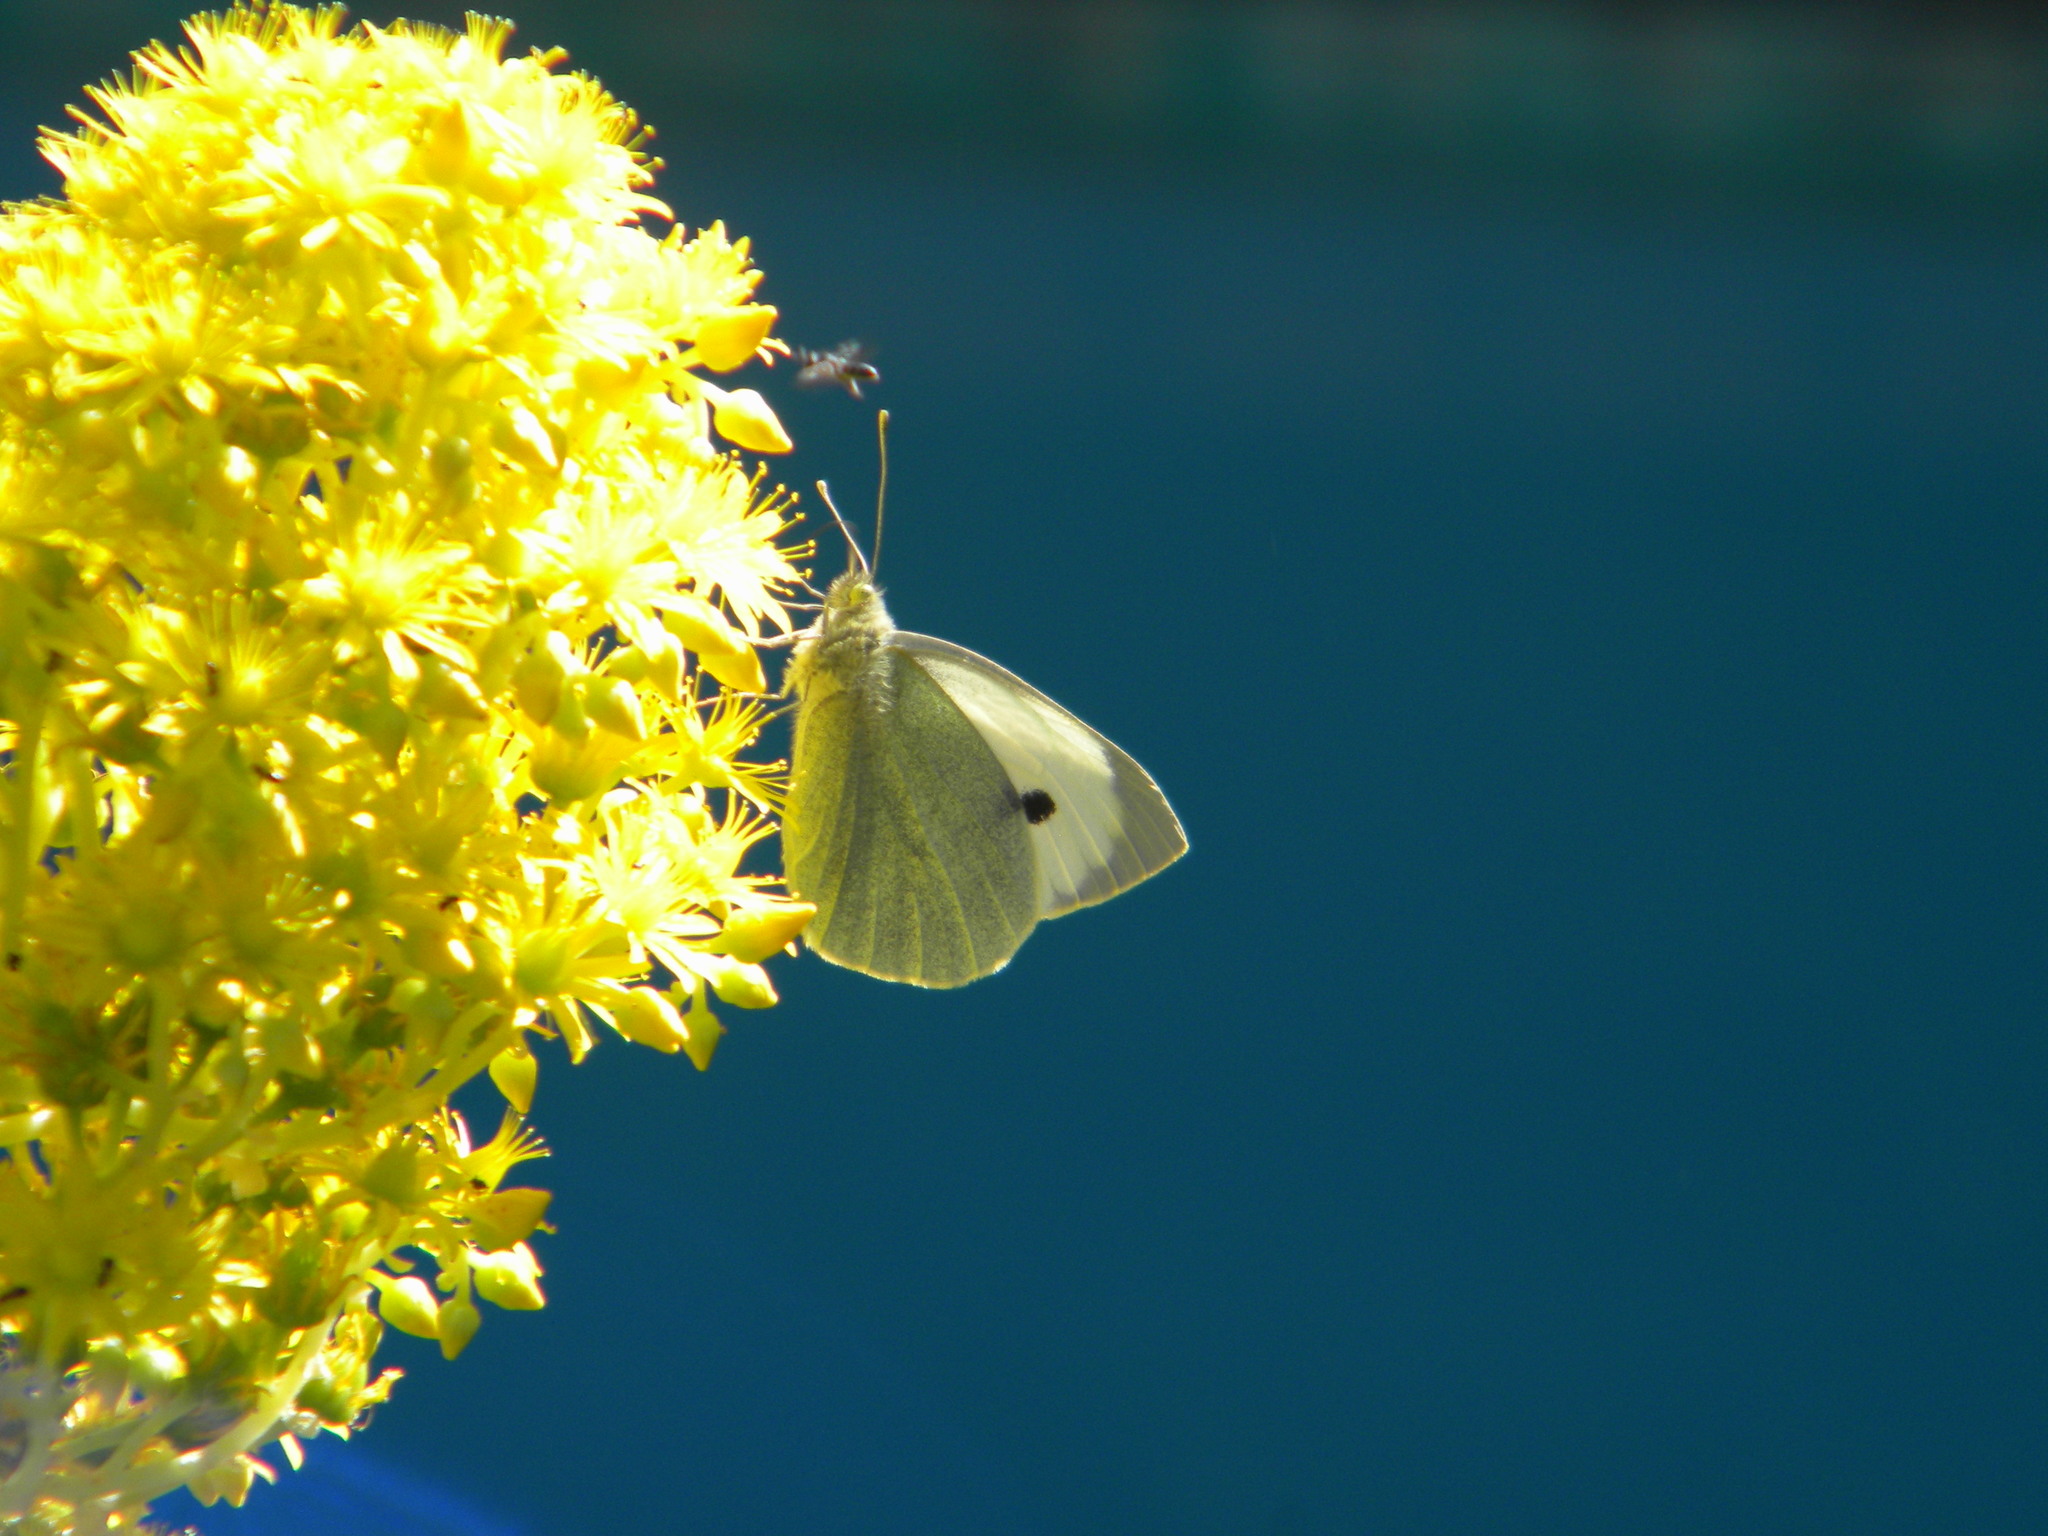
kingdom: Animalia
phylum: Arthropoda
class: Insecta
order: Lepidoptera
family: Pieridae
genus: Pieris
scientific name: Pieris brassicae
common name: Large white
